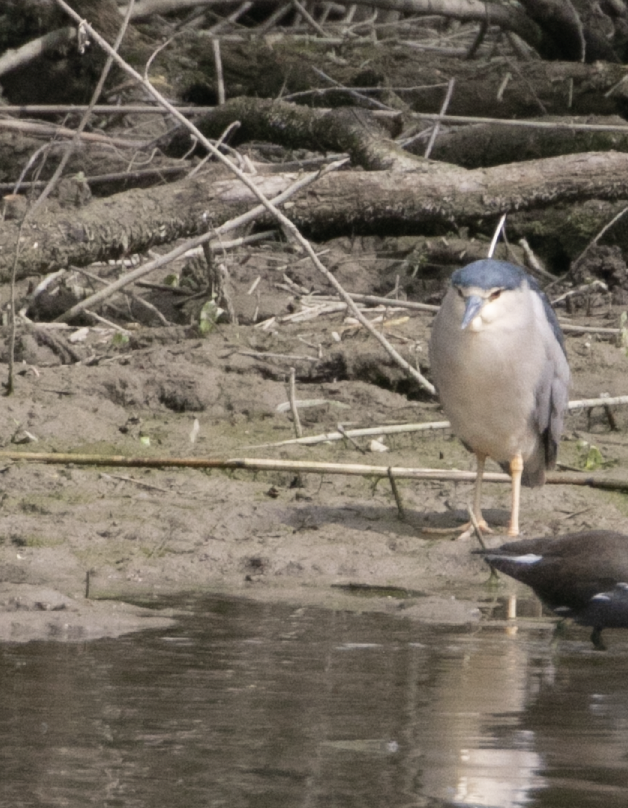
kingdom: Animalia
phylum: Chordata
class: Aves
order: Pelecaniformes
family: Ardeidae
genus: Nycticorax
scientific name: Nycticorax nycticorax
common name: Black-crowned night heron
